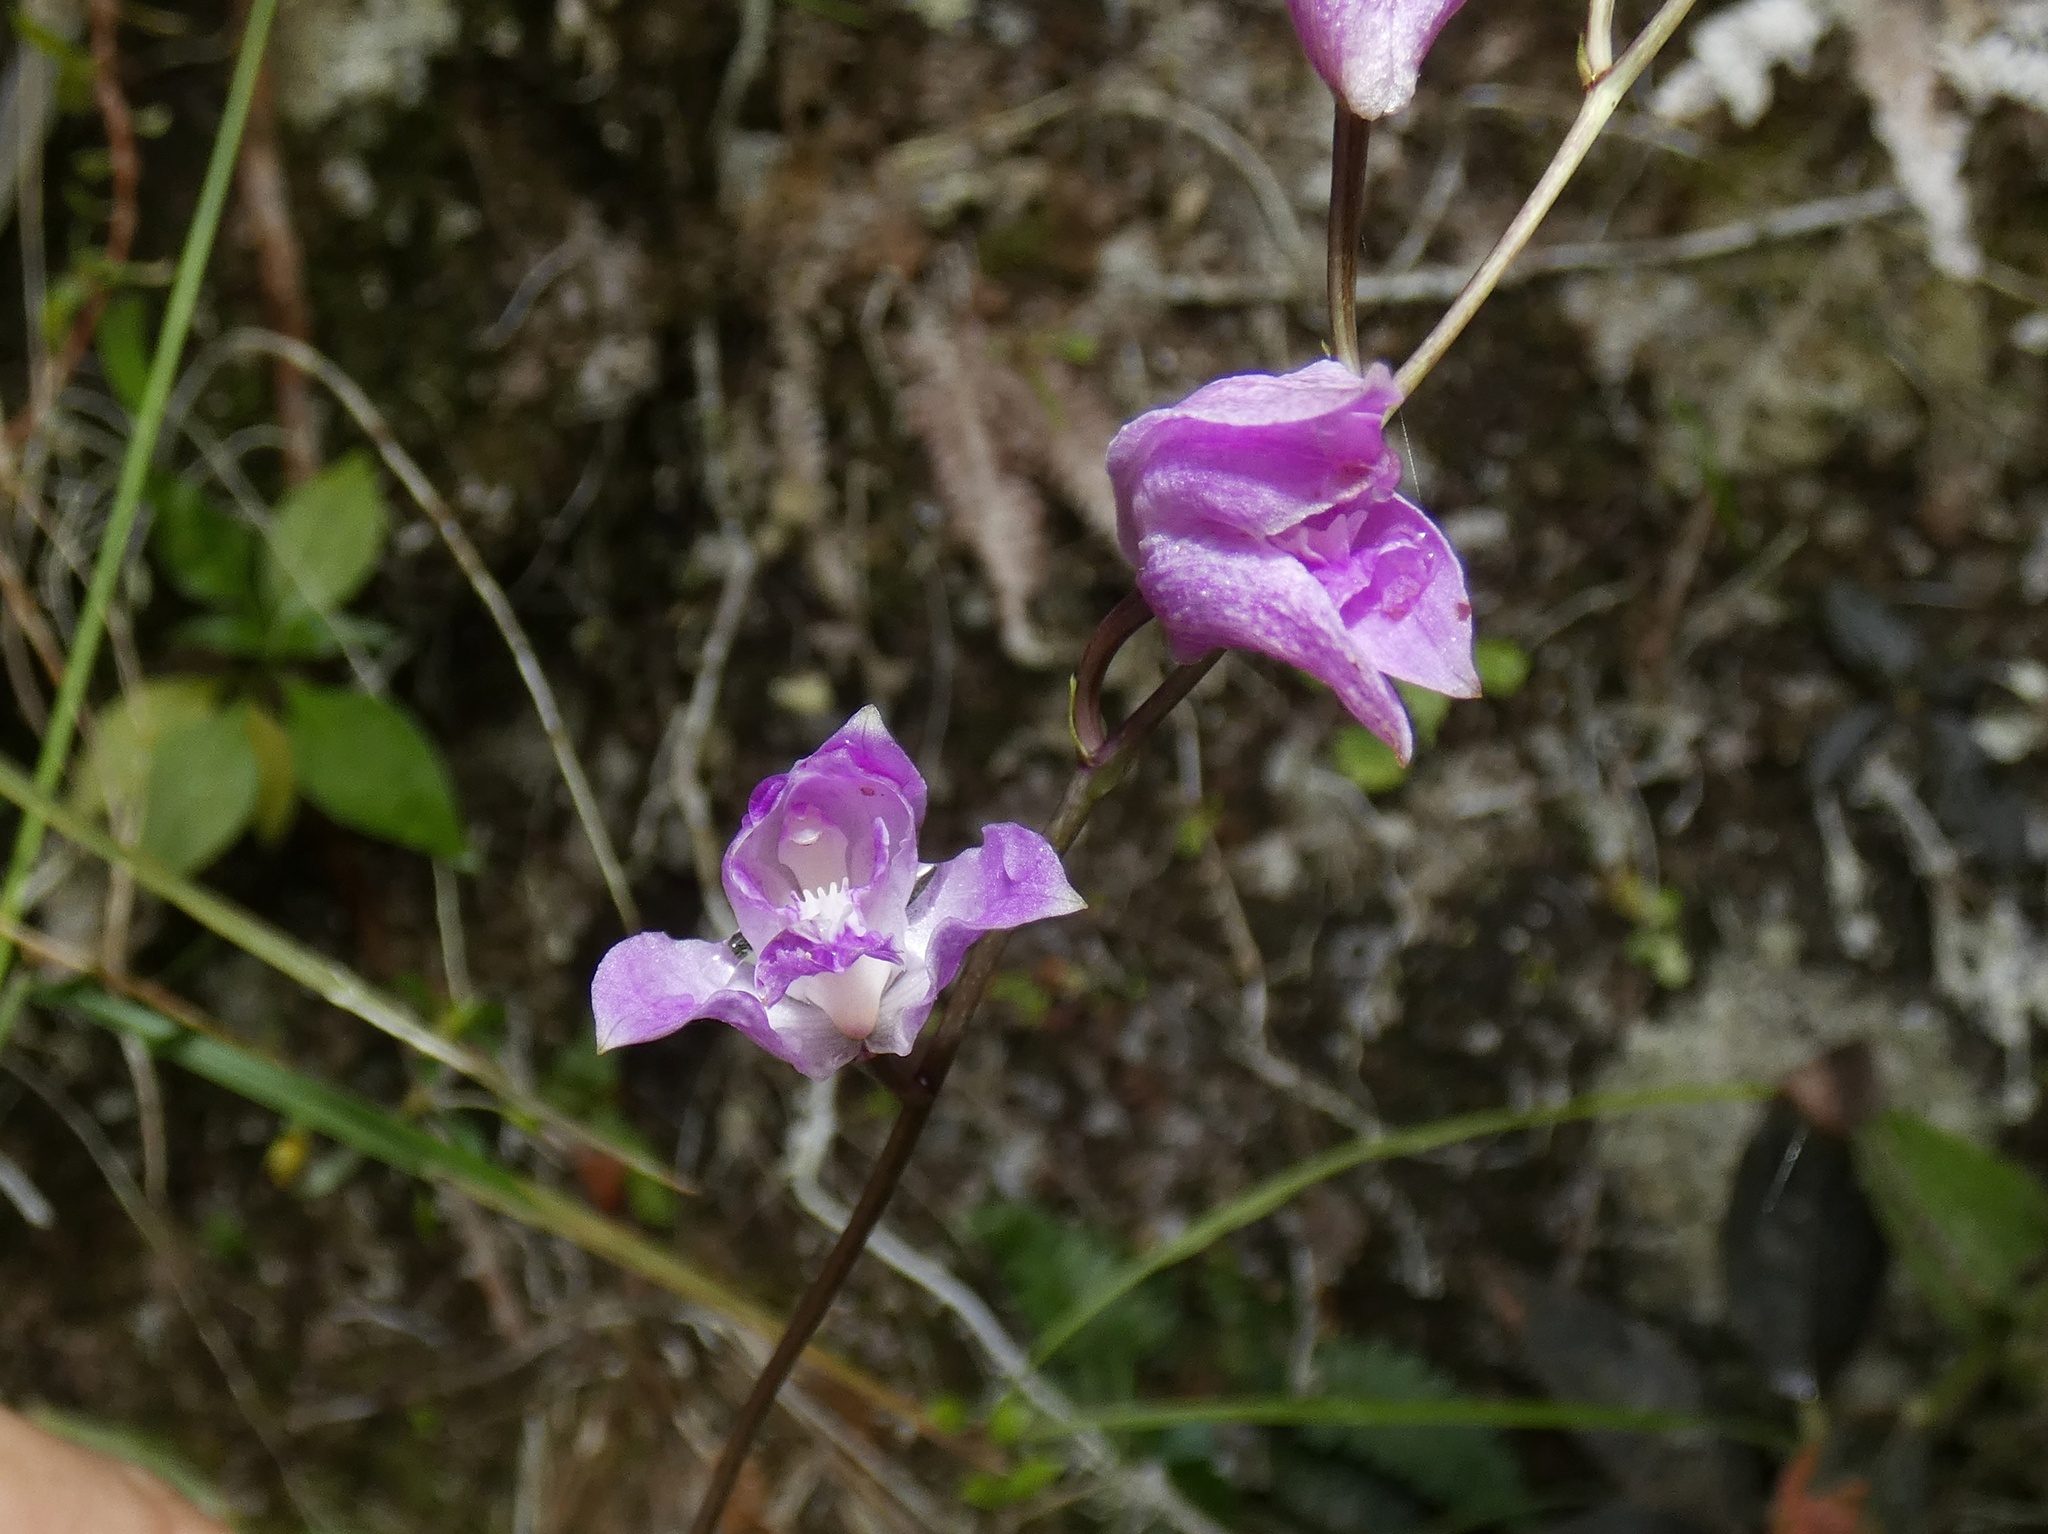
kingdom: Plantae
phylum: Tracheophyta
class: Liliopsida
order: Asparagales
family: Orchidaceae
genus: Bletia
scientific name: Bletia purpurea
